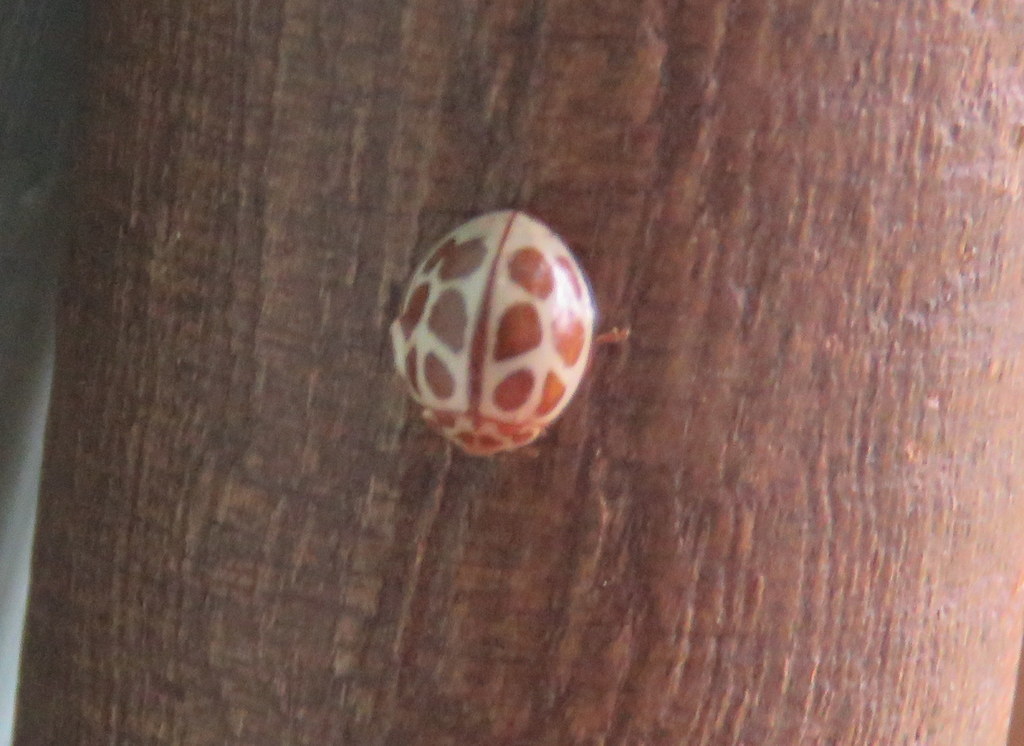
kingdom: Animalia
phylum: Arthropoda
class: Insecta
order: Coleoptera
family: Coccinellidae
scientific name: Coccinellidae
